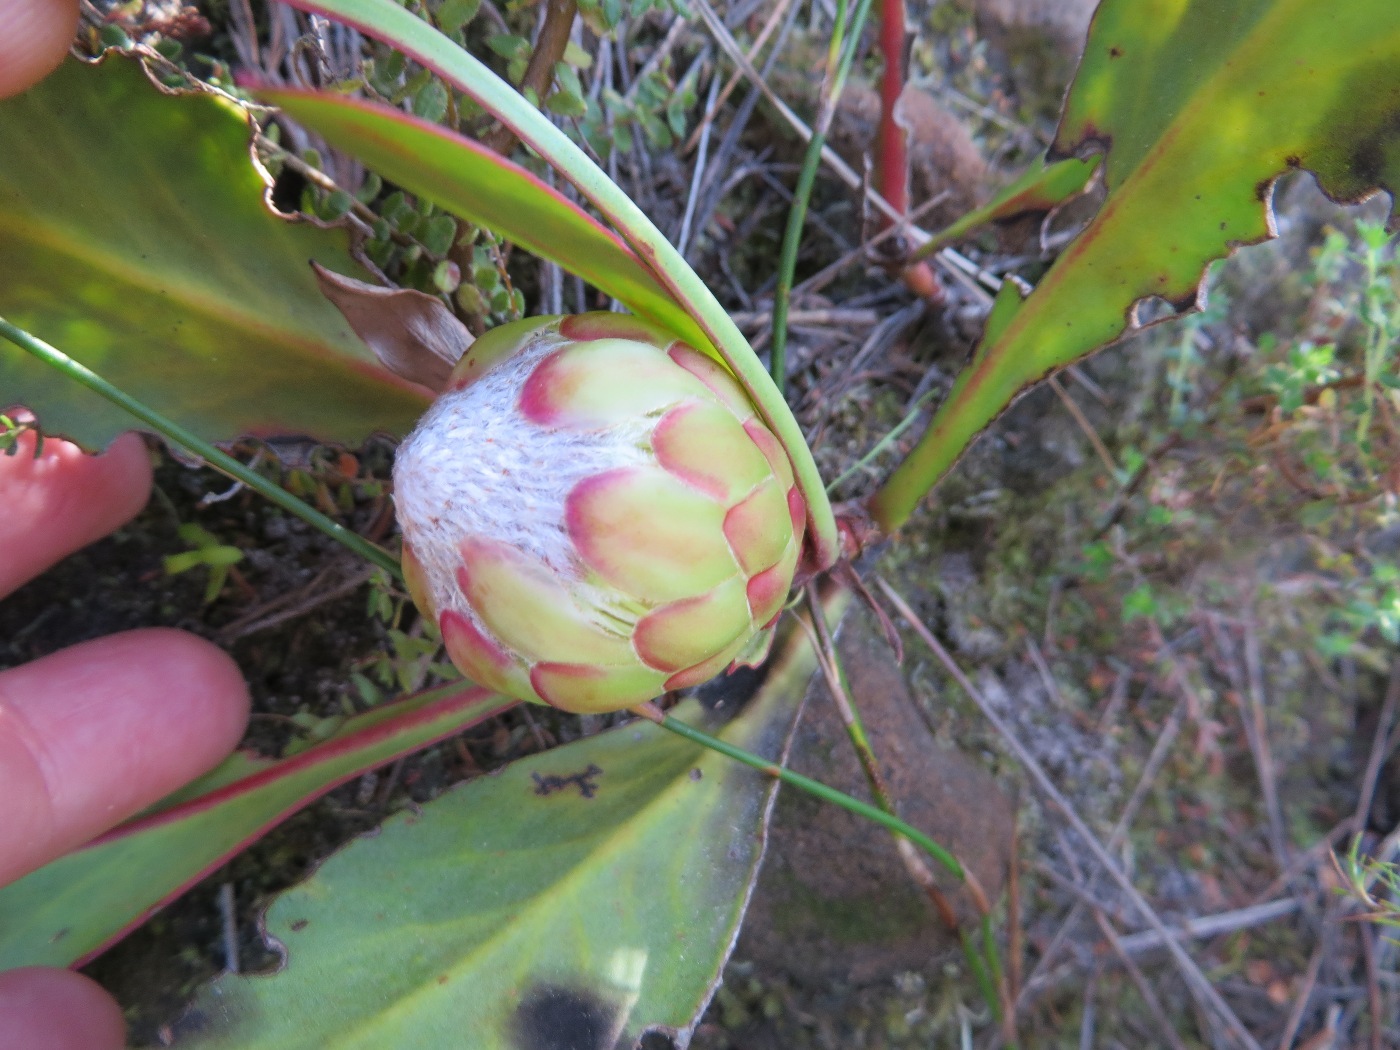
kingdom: Plantae
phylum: Tracheophyta
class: Magnoliopsida
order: Proteales
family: Proteaceae
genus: Protea
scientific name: Protea acaulos
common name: Common ground sugarbush
